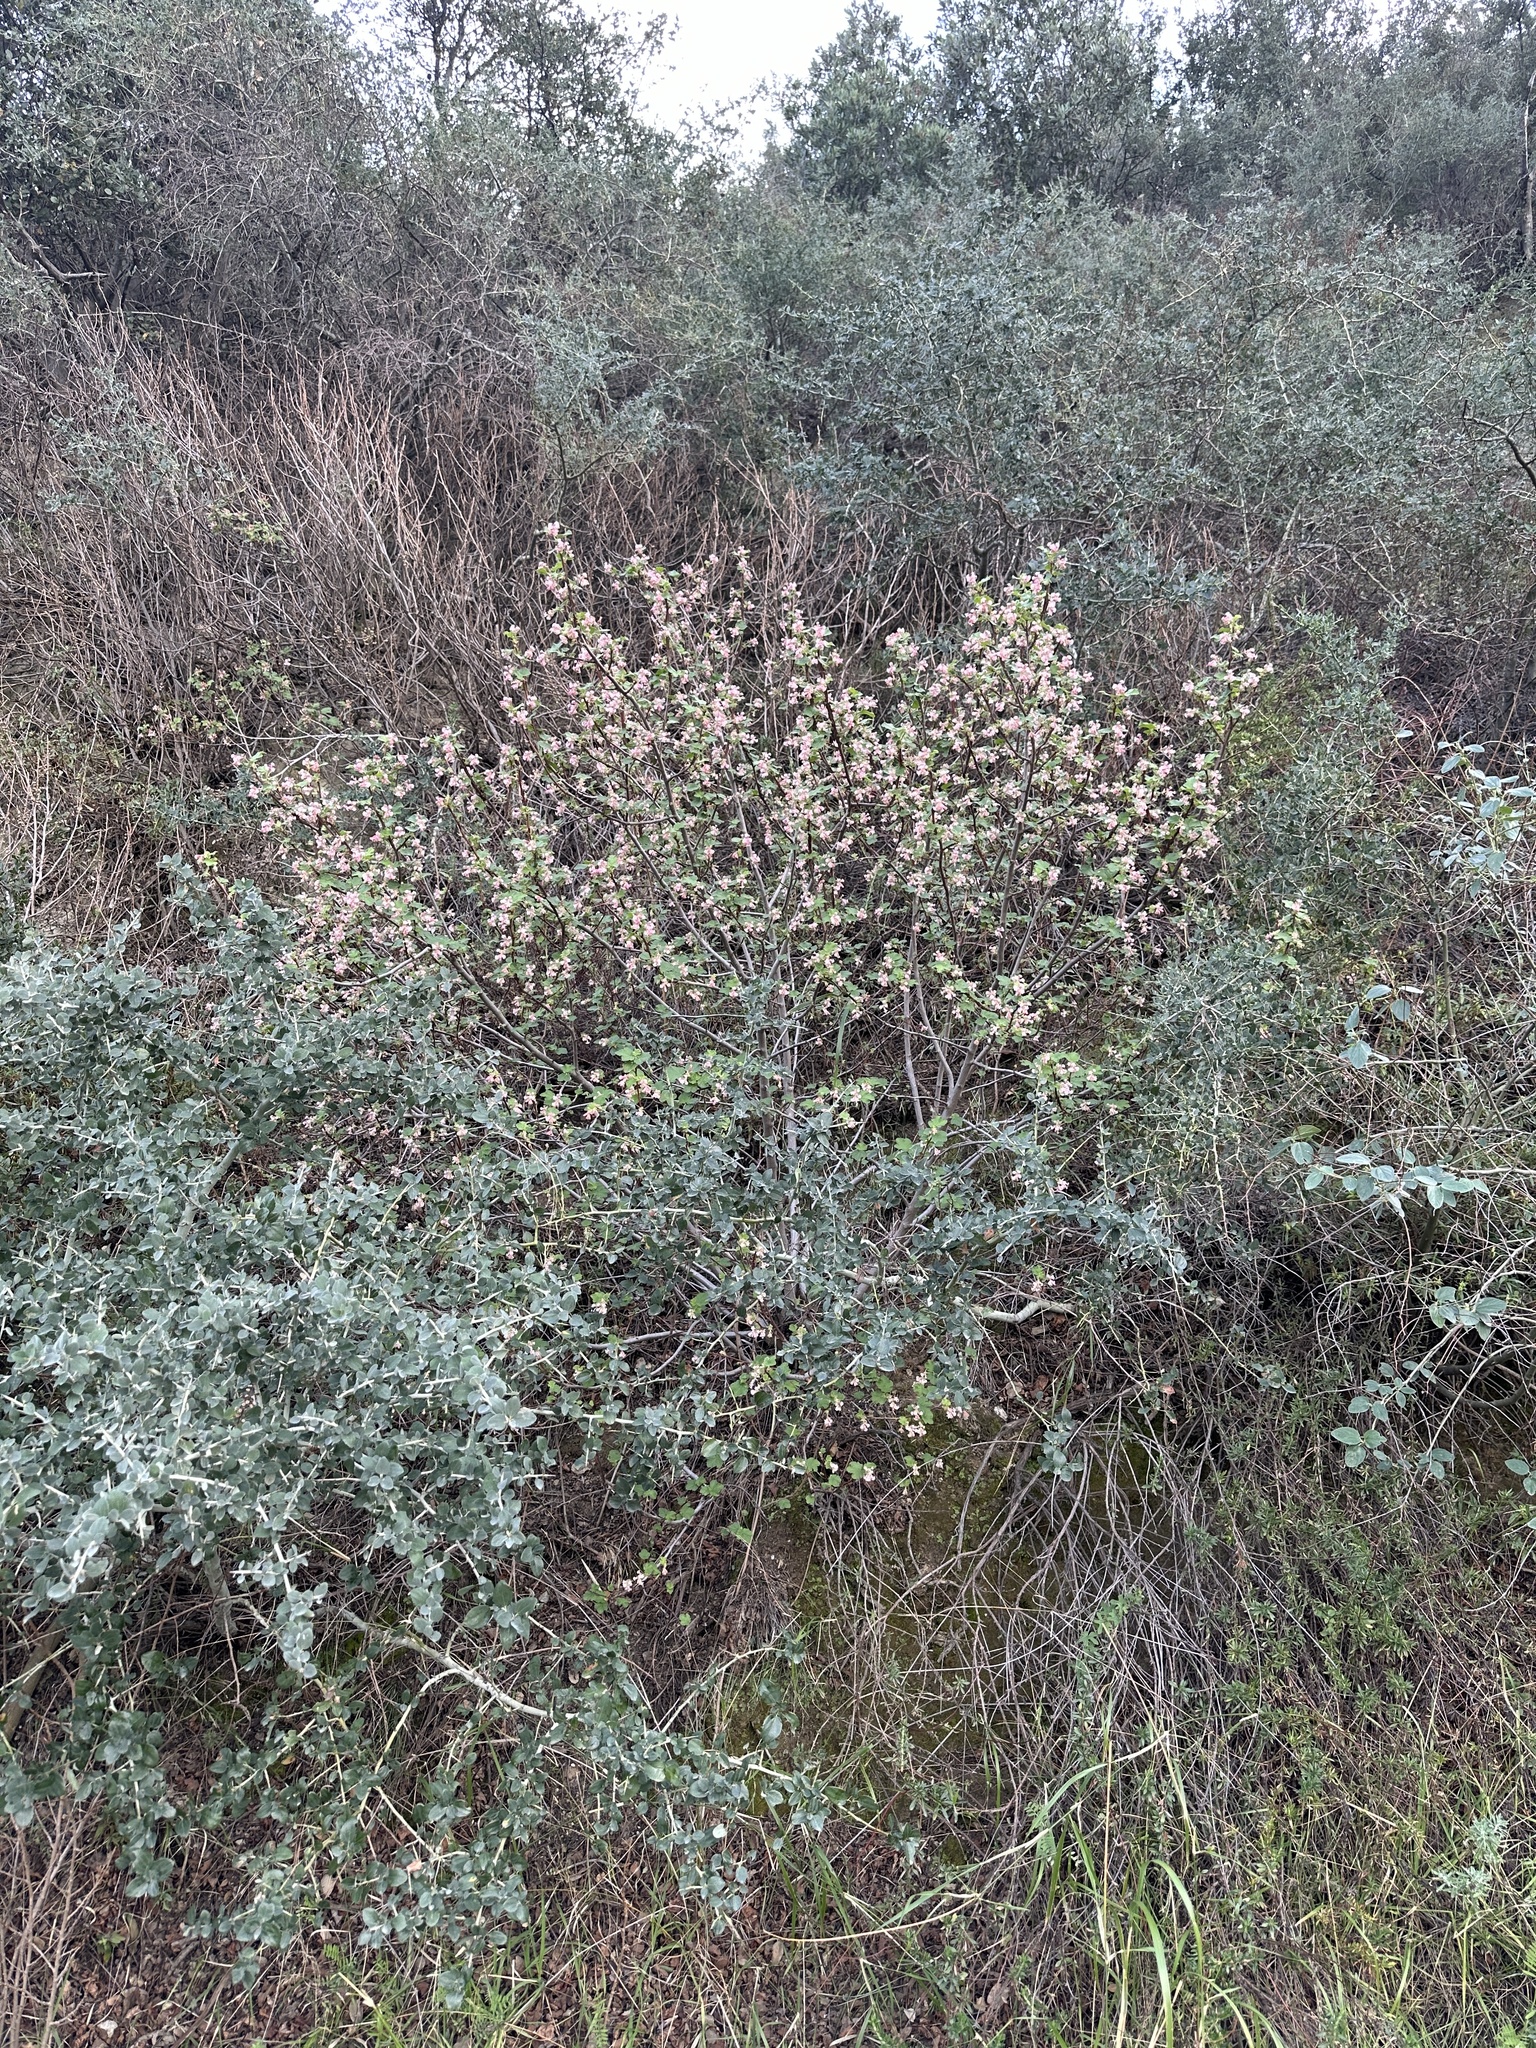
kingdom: Plantae
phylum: Tracheophyta
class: Magnoliopsida
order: Saxifragales
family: Grossulariaceae
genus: Ribes
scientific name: Ribes malvaceum
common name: Chaparral currant
